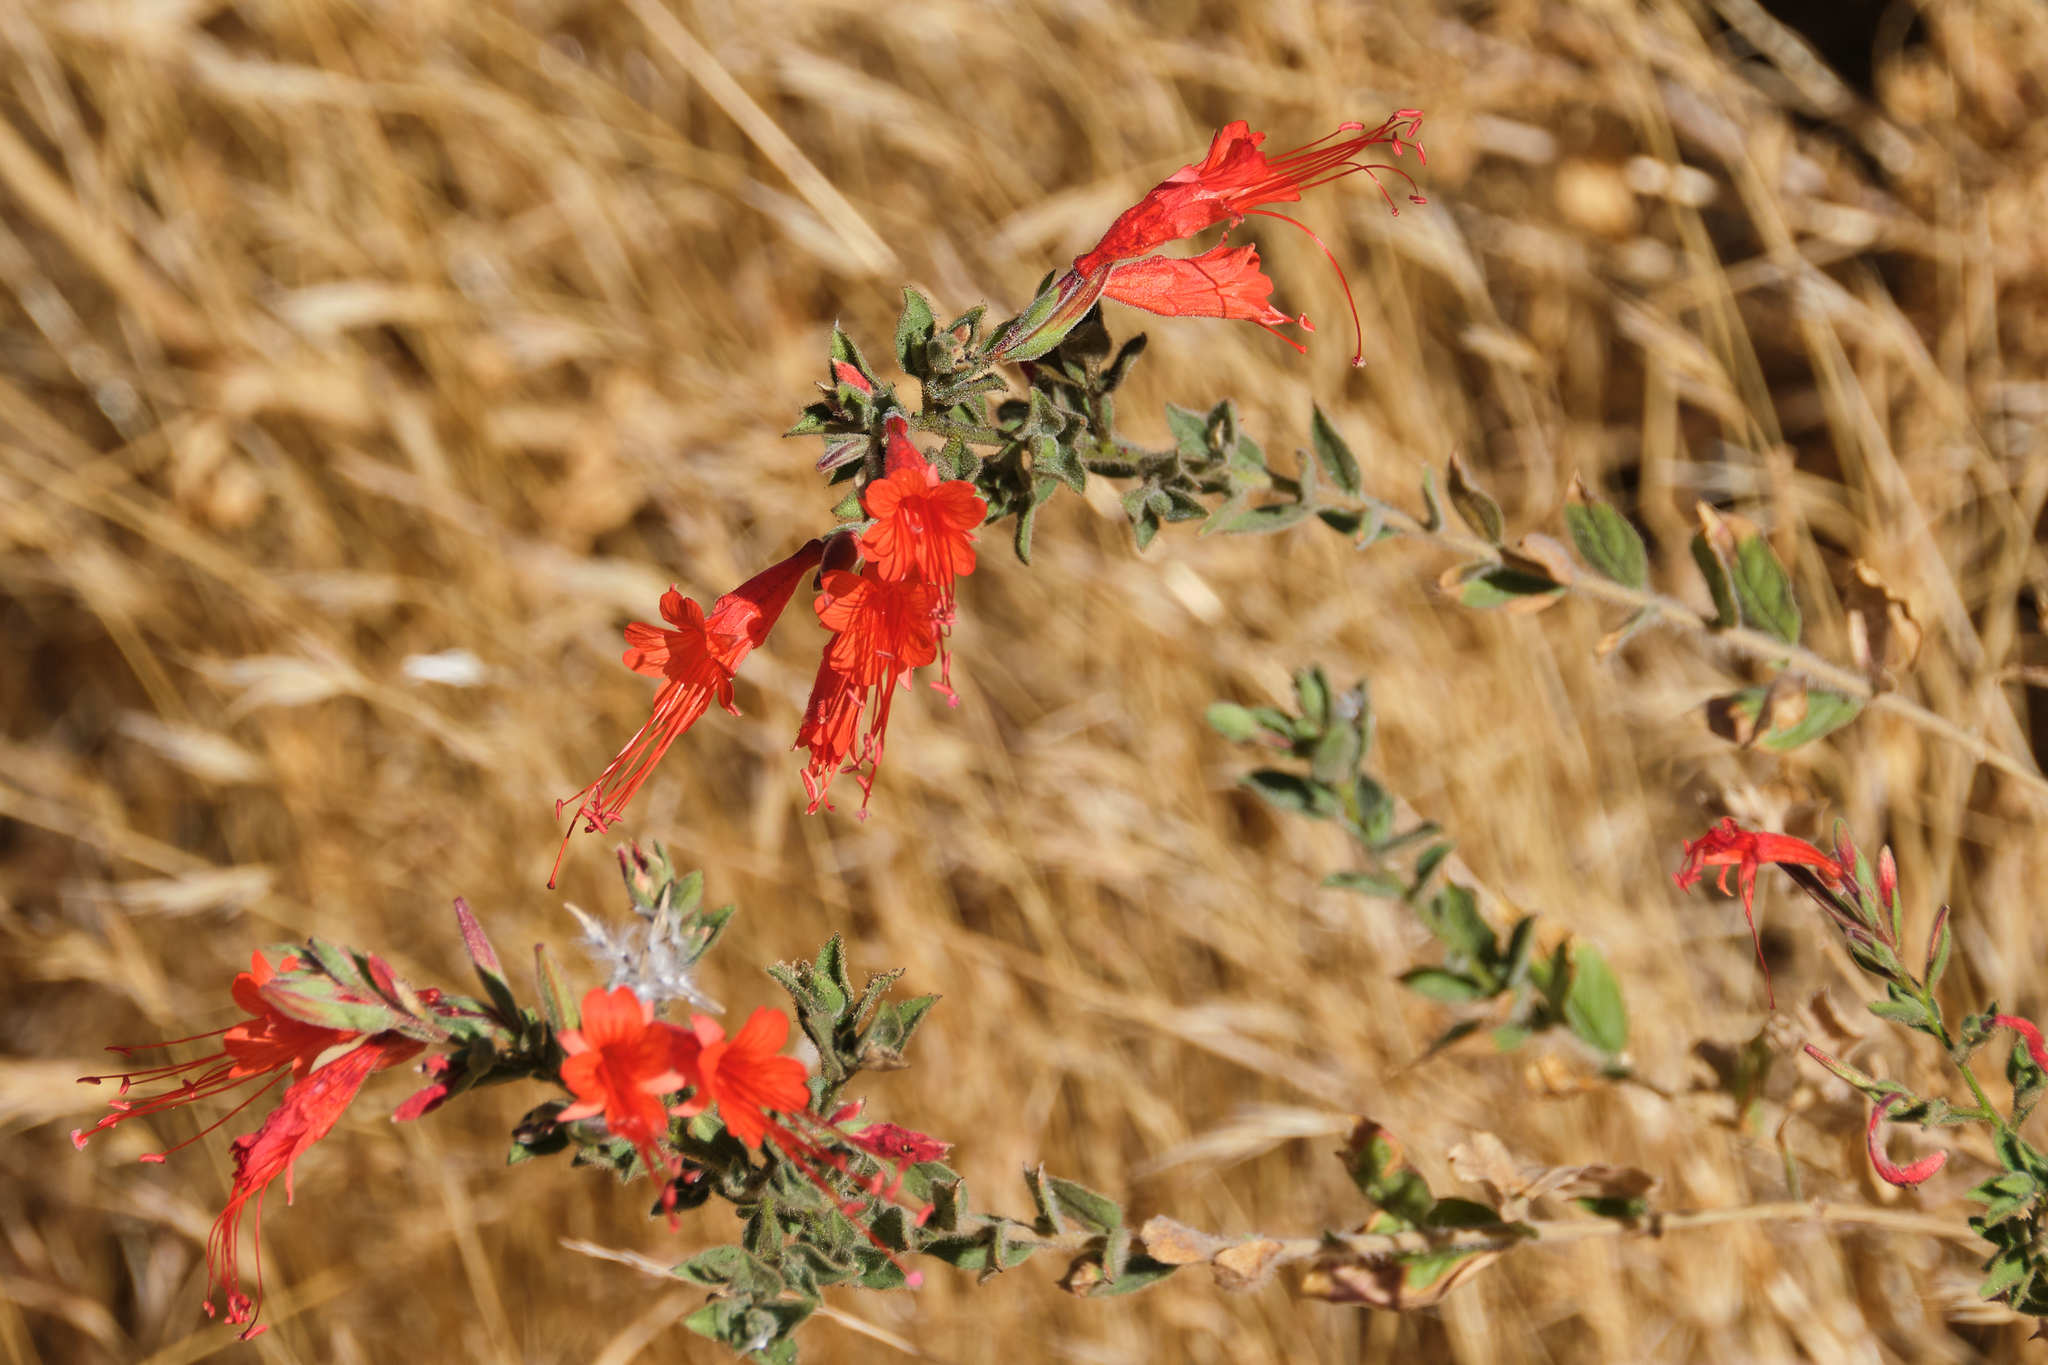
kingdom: Plantae
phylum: Tracheophyta
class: Magnoliopsida
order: Myrtales
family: Onagraceae
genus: Epilobium
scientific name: Epilobium canum
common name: California-fuchsia
